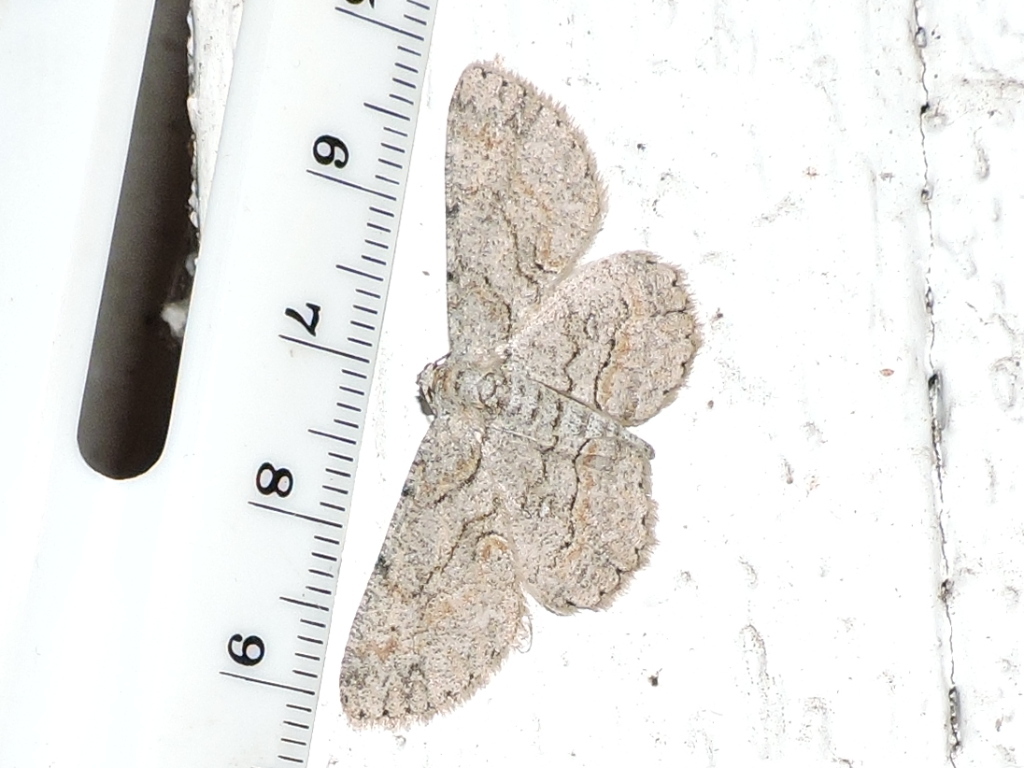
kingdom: Animalia
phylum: Arthropoda
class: Insecta
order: Lepidoptera
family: Geometridae
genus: Iridopsis
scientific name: Iridopsis defectaria
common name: Brown-shaded gray
